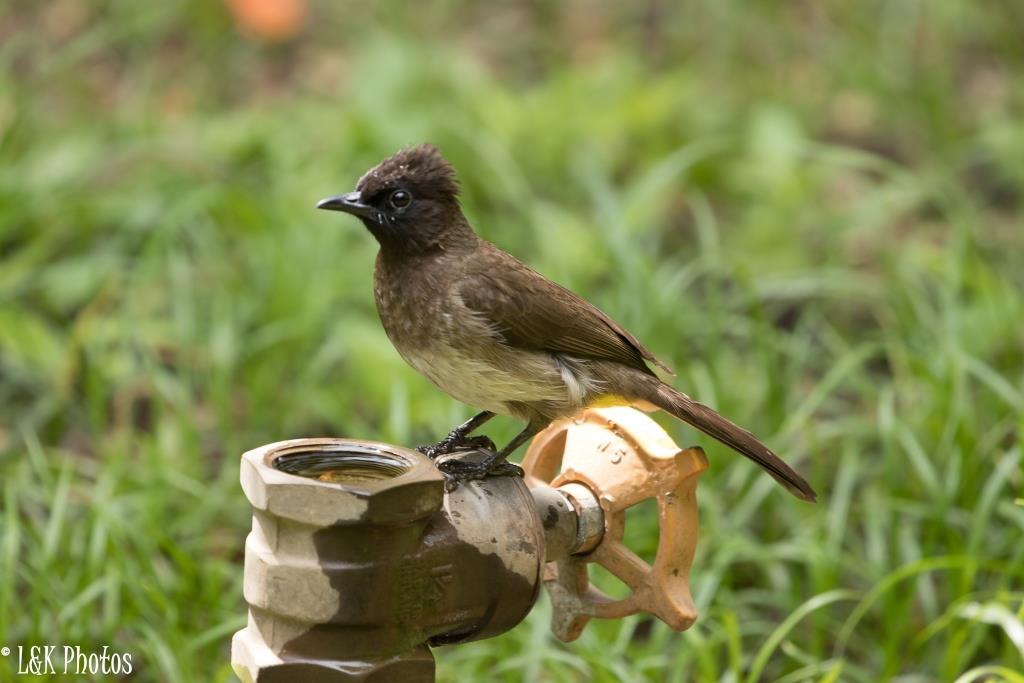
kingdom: Animalia
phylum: Chordata
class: Aves
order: Passeriformes
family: Pycnonotidae
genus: Pycnonotus
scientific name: Pycnonotus barbatus
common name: Common bulbul
